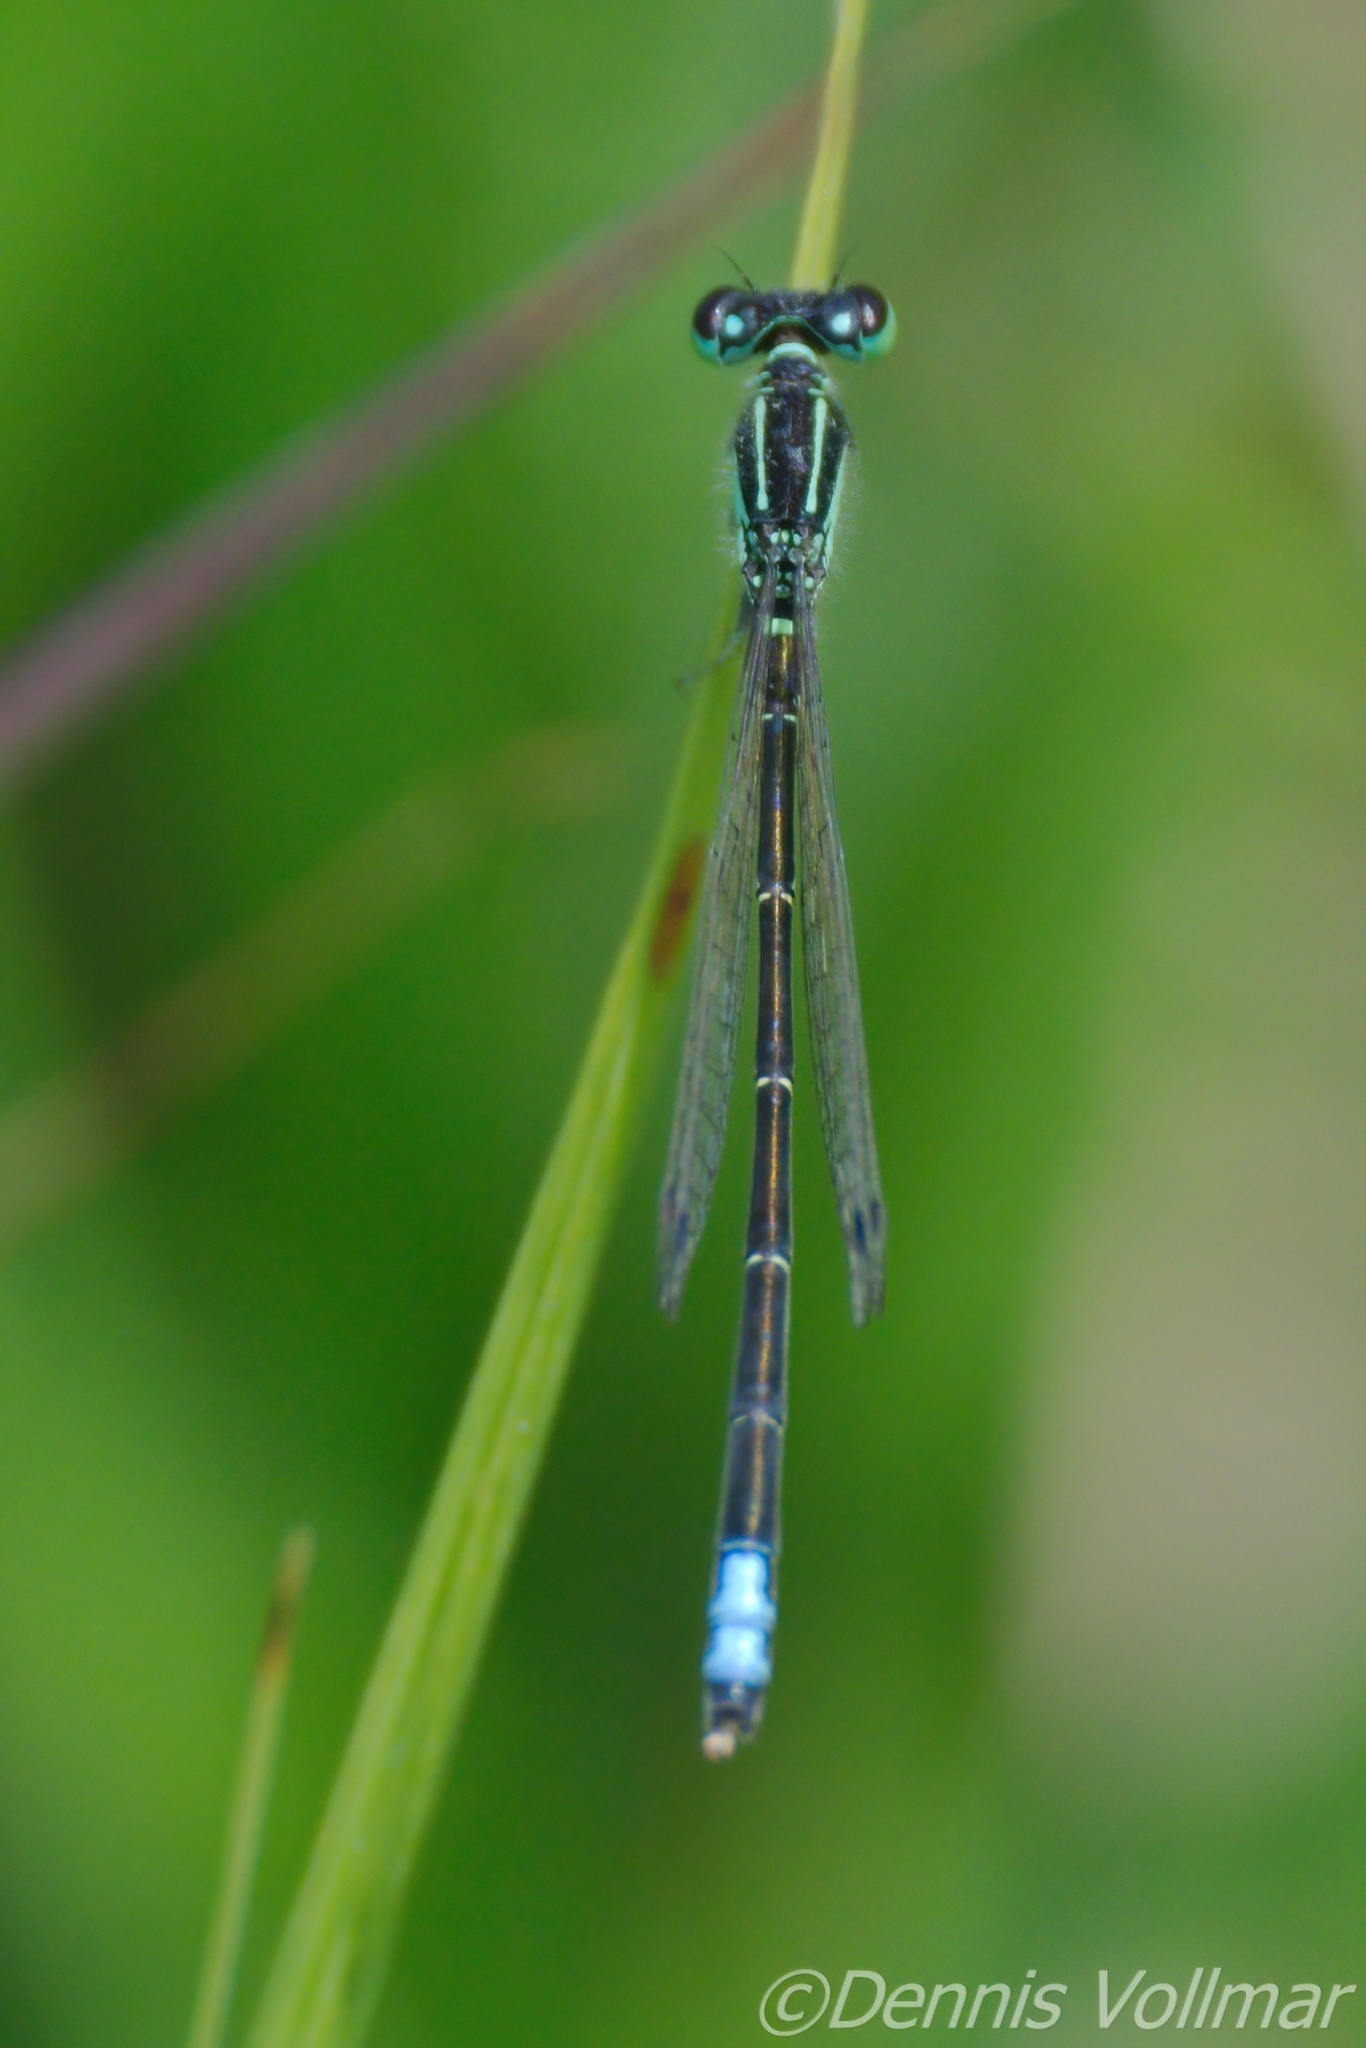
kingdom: Animalia
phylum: Arthropoda
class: Insecta
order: Odonata
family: Coenagrionidae
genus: Ischnura
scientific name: Ischnura verticalis
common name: Eastern forktail
